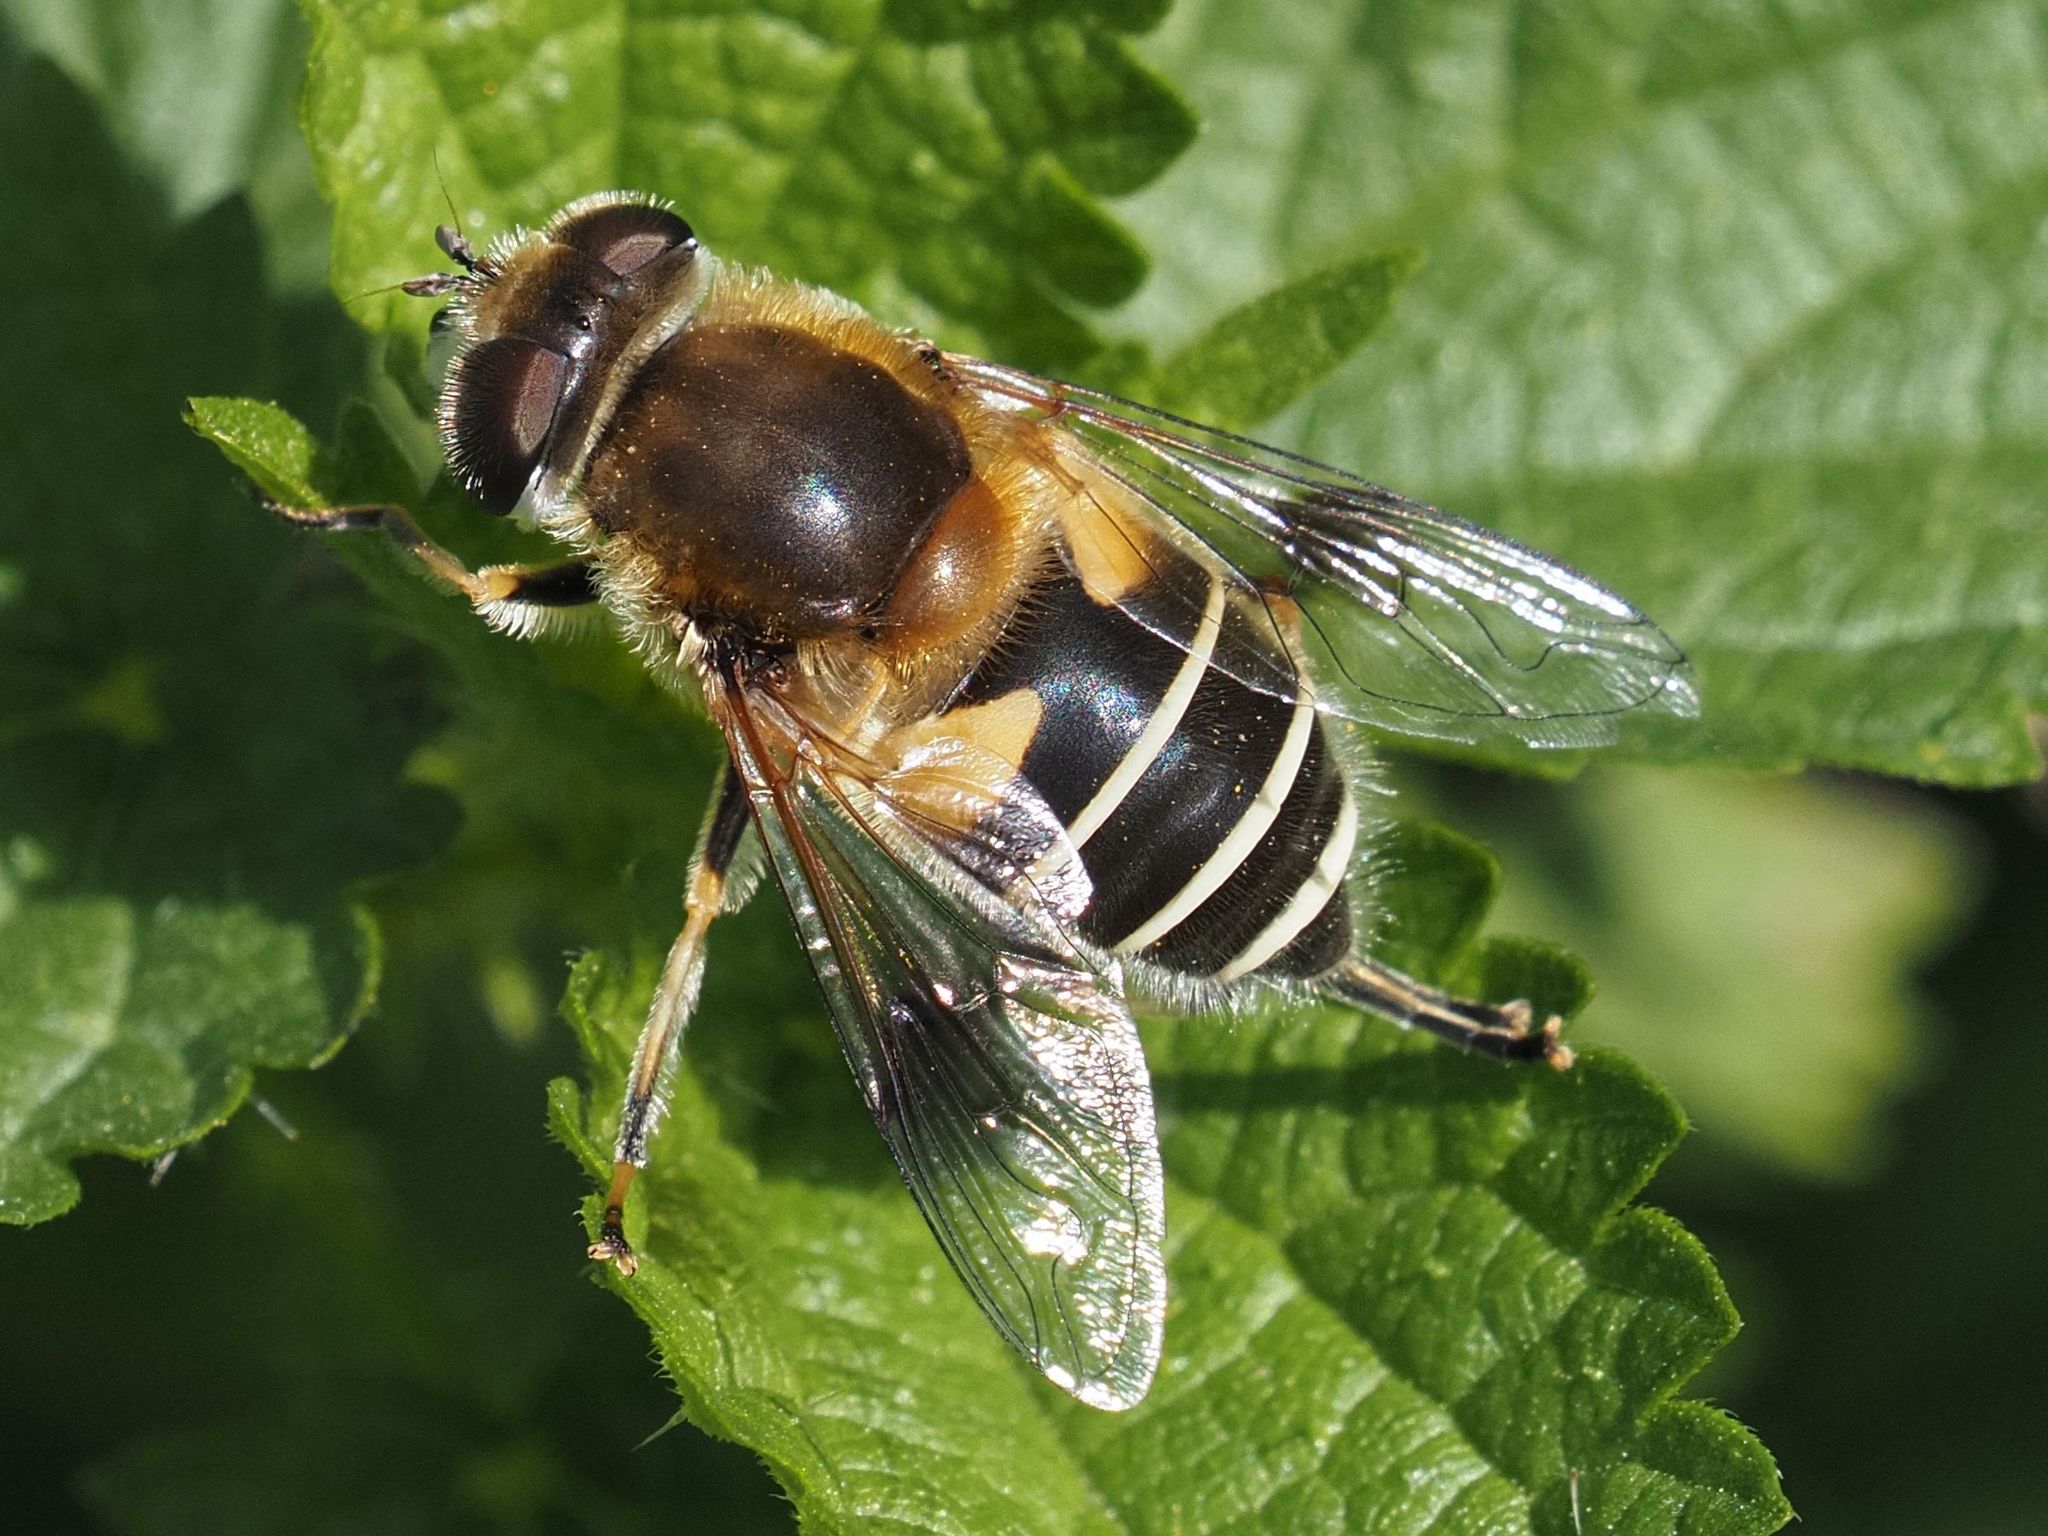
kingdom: Animalia
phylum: Arthropoda
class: Insecta
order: Diptera
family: Syrphidae
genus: Eristalis
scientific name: Eristalis jugorum
